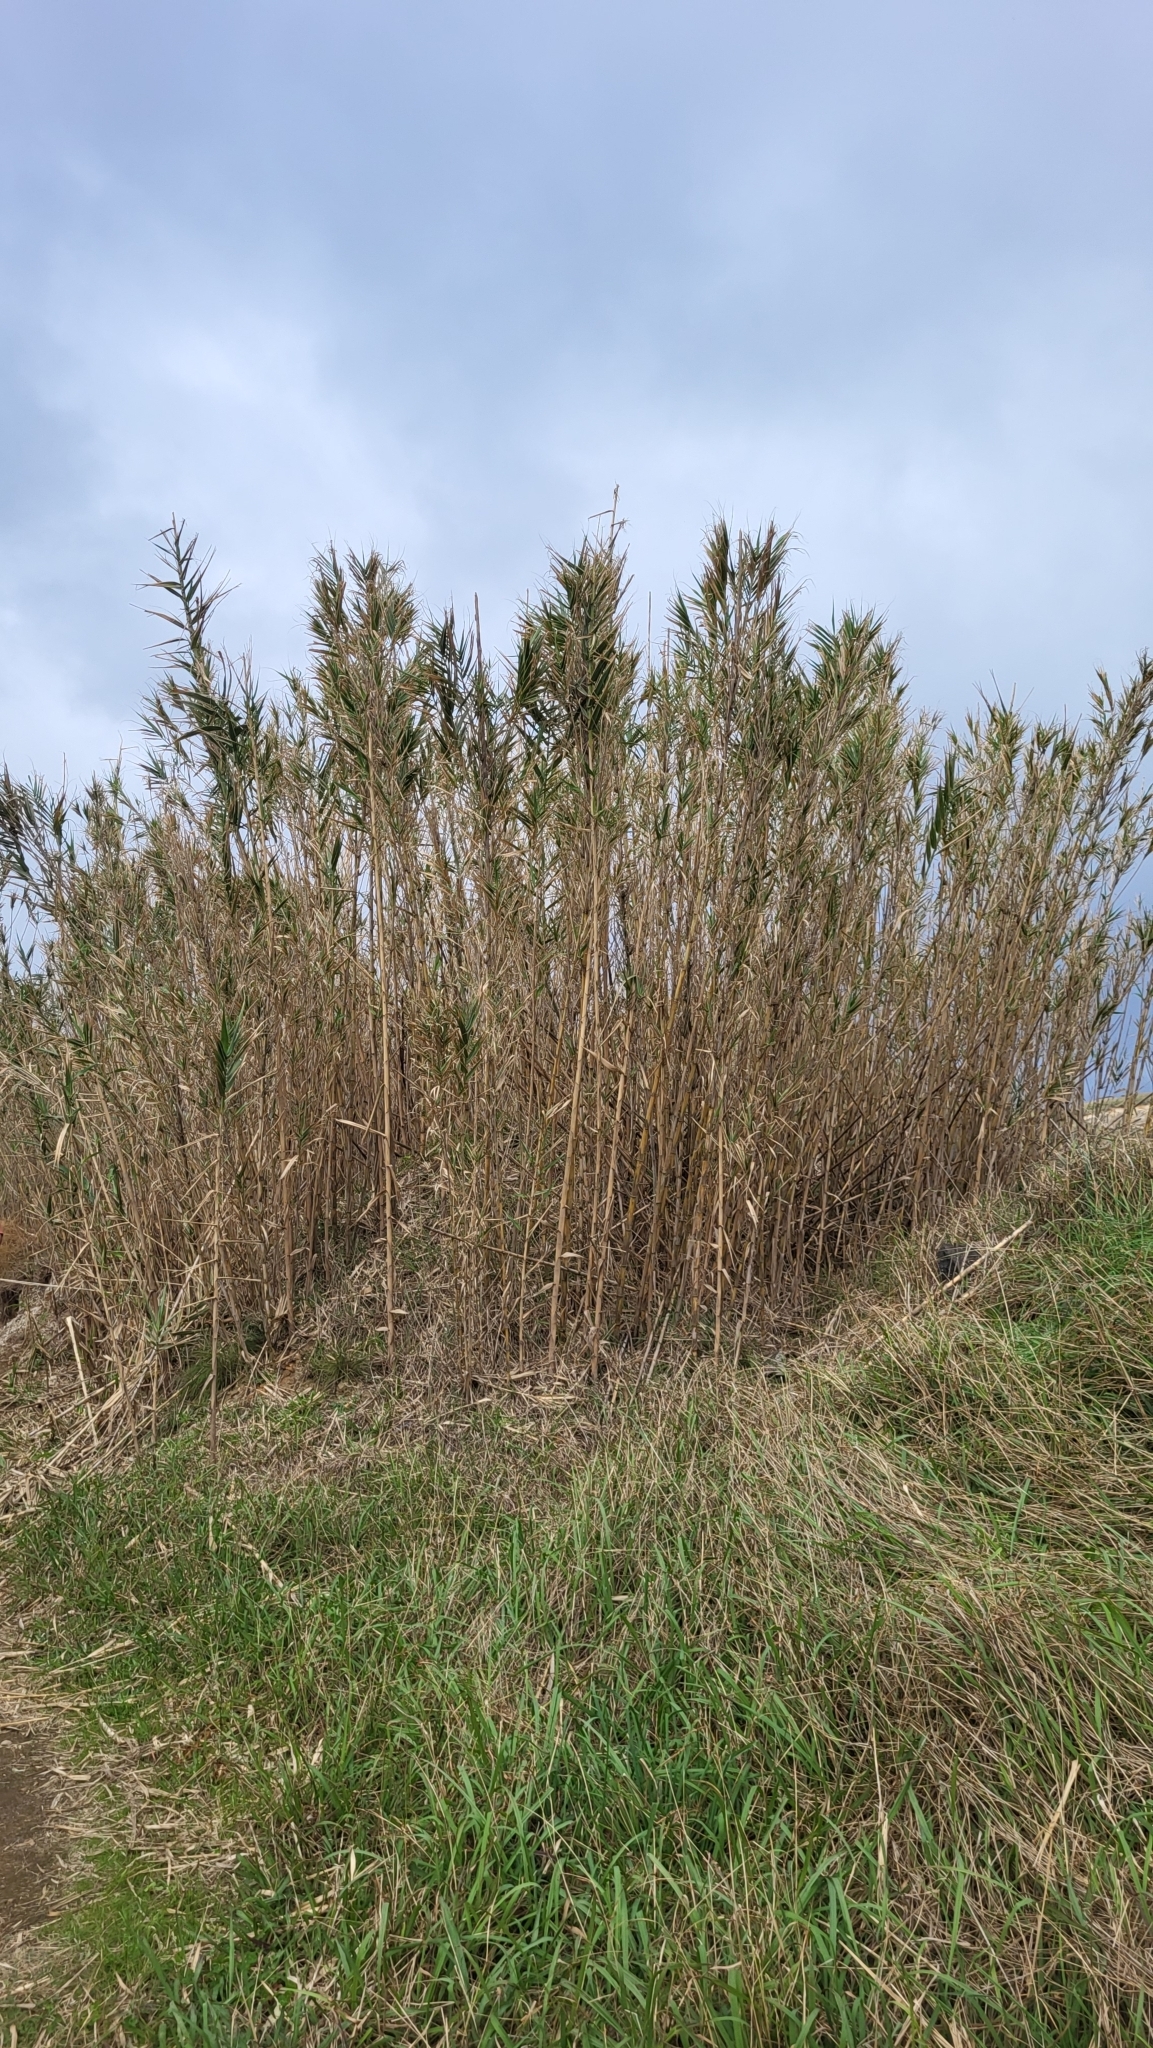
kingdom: Plantae
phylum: Tracheophyta
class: Liliopsida
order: Poales
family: Poaceae
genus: Arundo
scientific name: Arundo donax
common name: Giant reed
